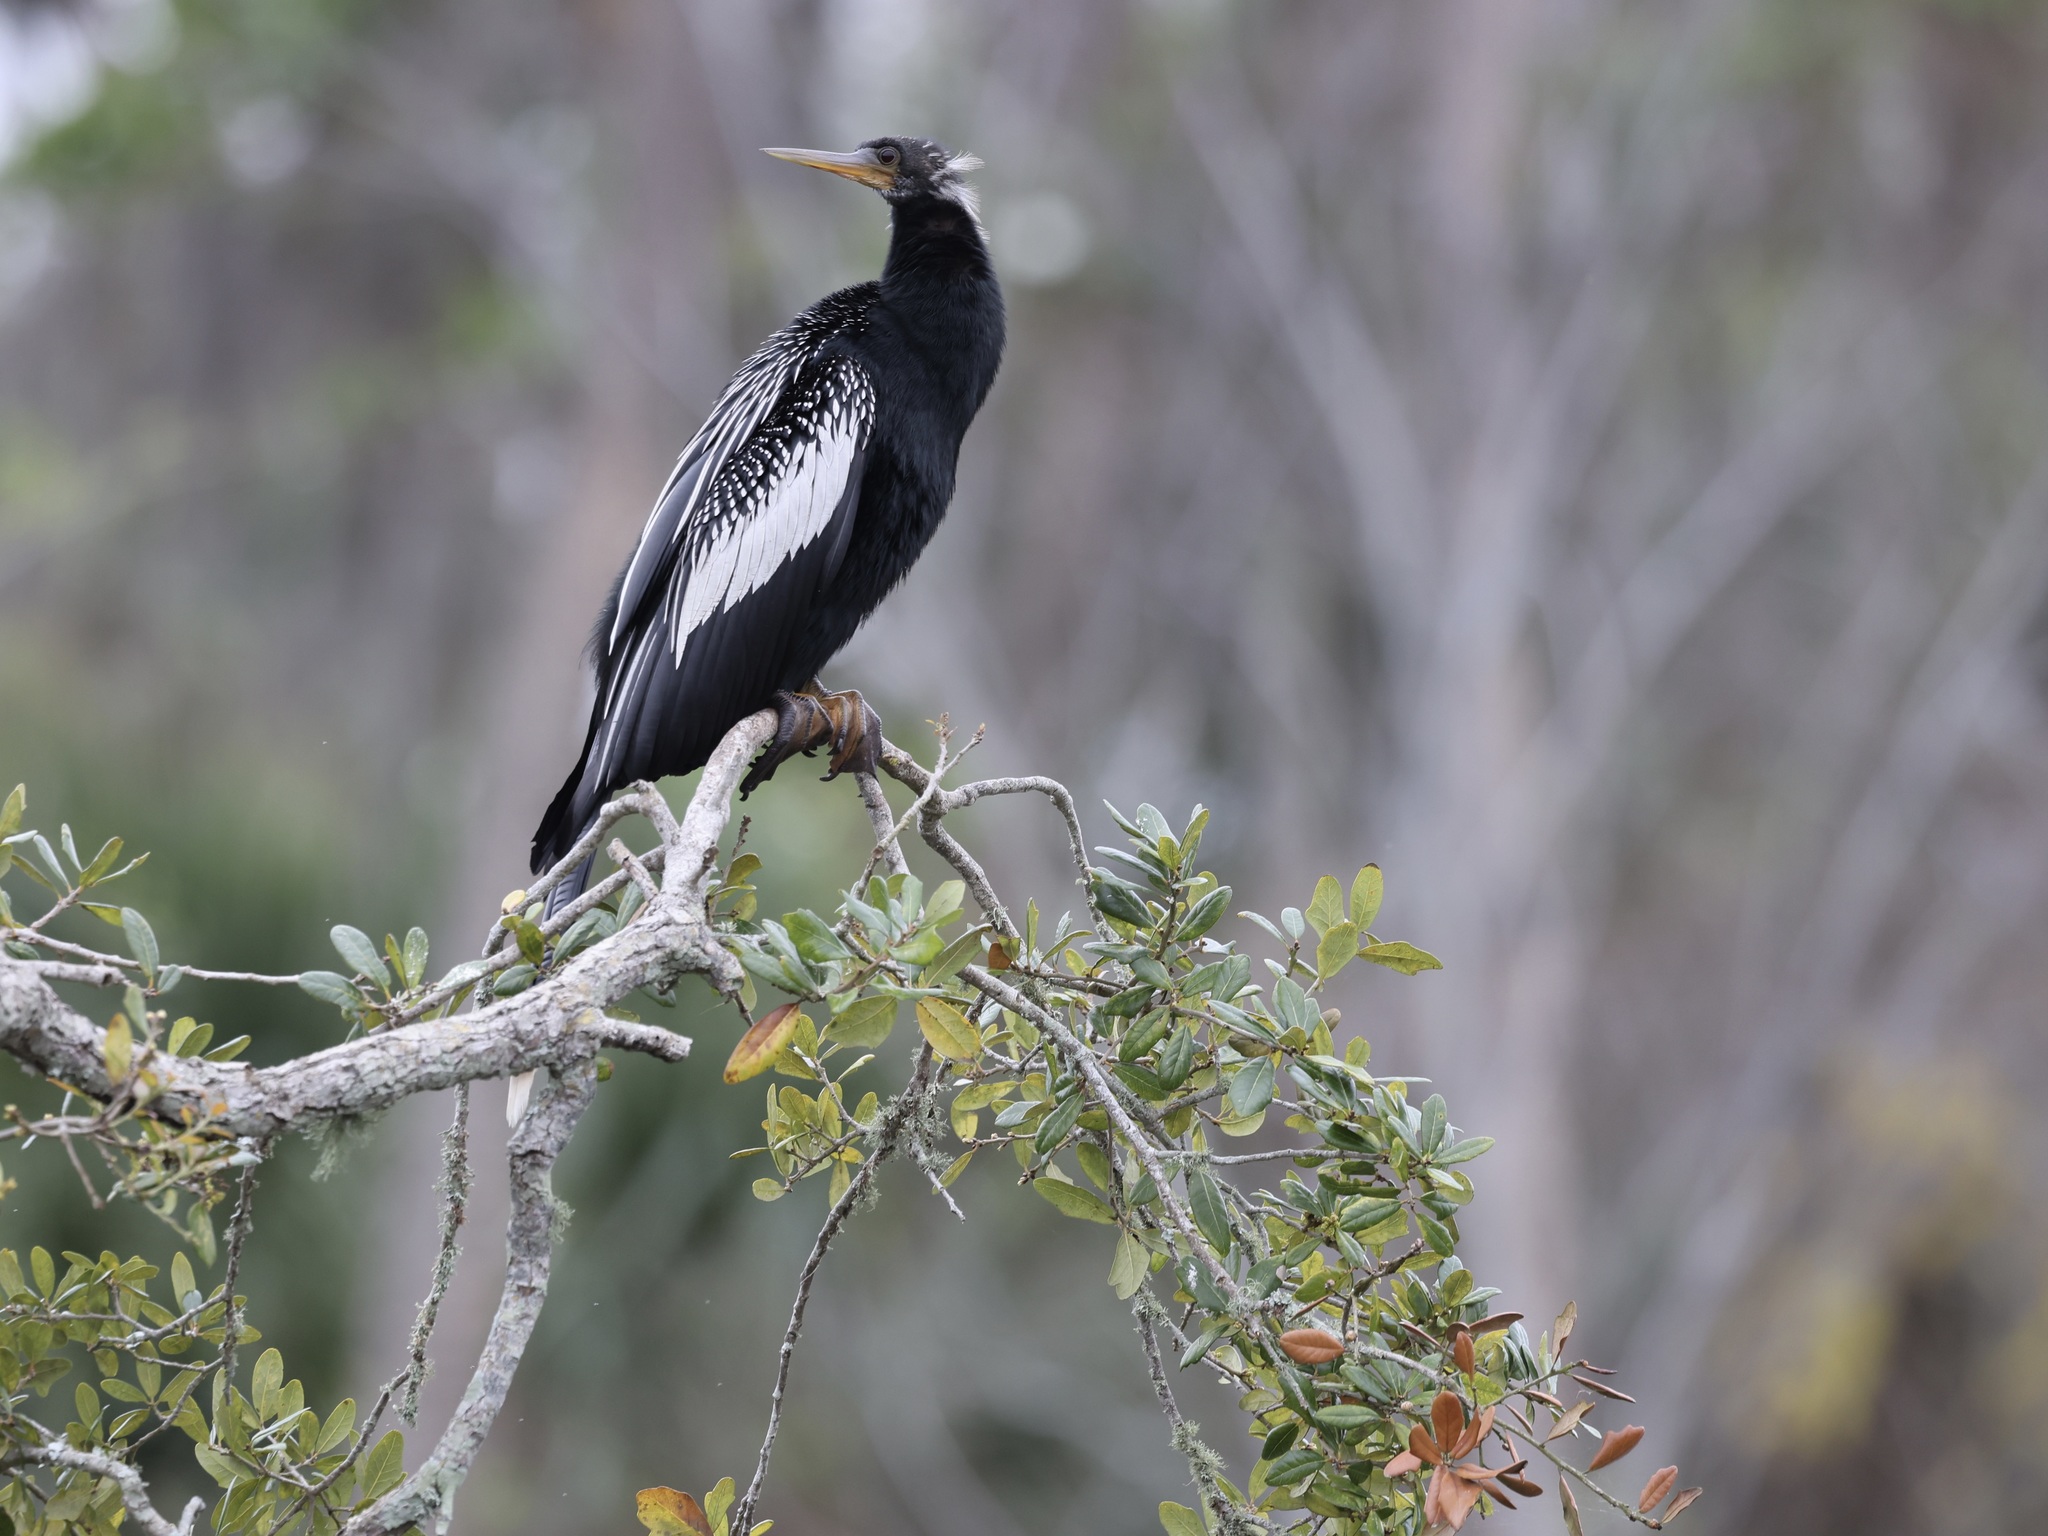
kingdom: Animalia
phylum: Chordata
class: Aves
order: Suliformes
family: Anhingidae
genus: Anhinga
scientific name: Anhinga anhinga
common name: Anhinga
